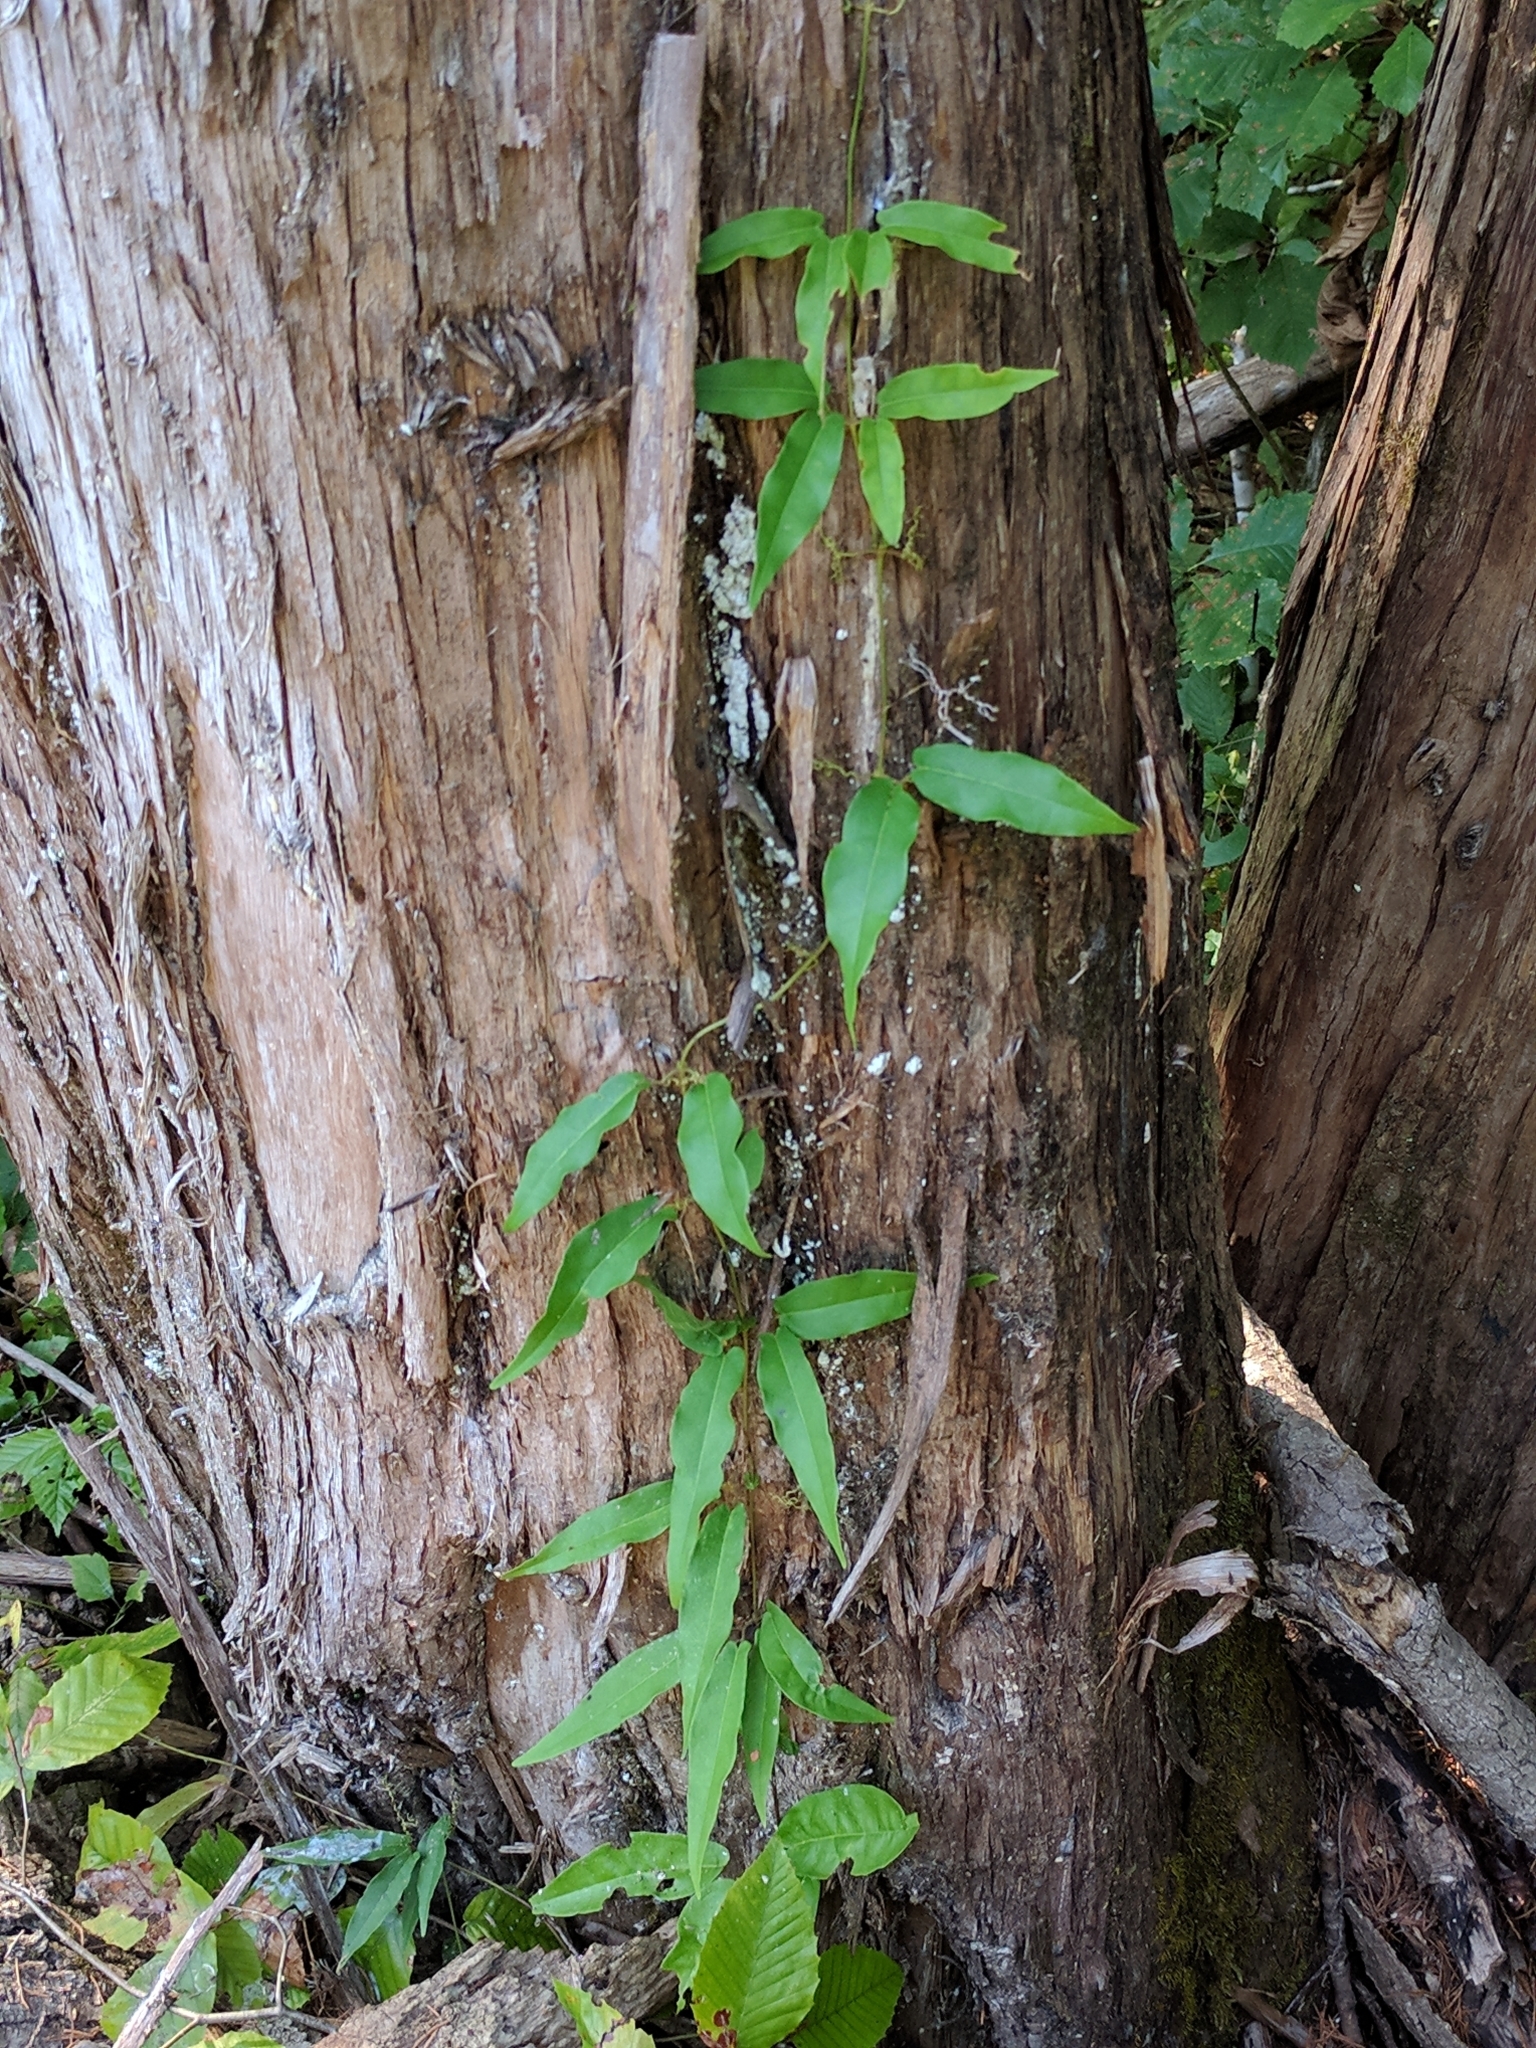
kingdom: Plantae
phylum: Tracheophyta
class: Magnoliopsida
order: Lamiales
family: Bignoniaceae
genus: Bignonia
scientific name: Bignonia capreolata
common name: Crossvine
